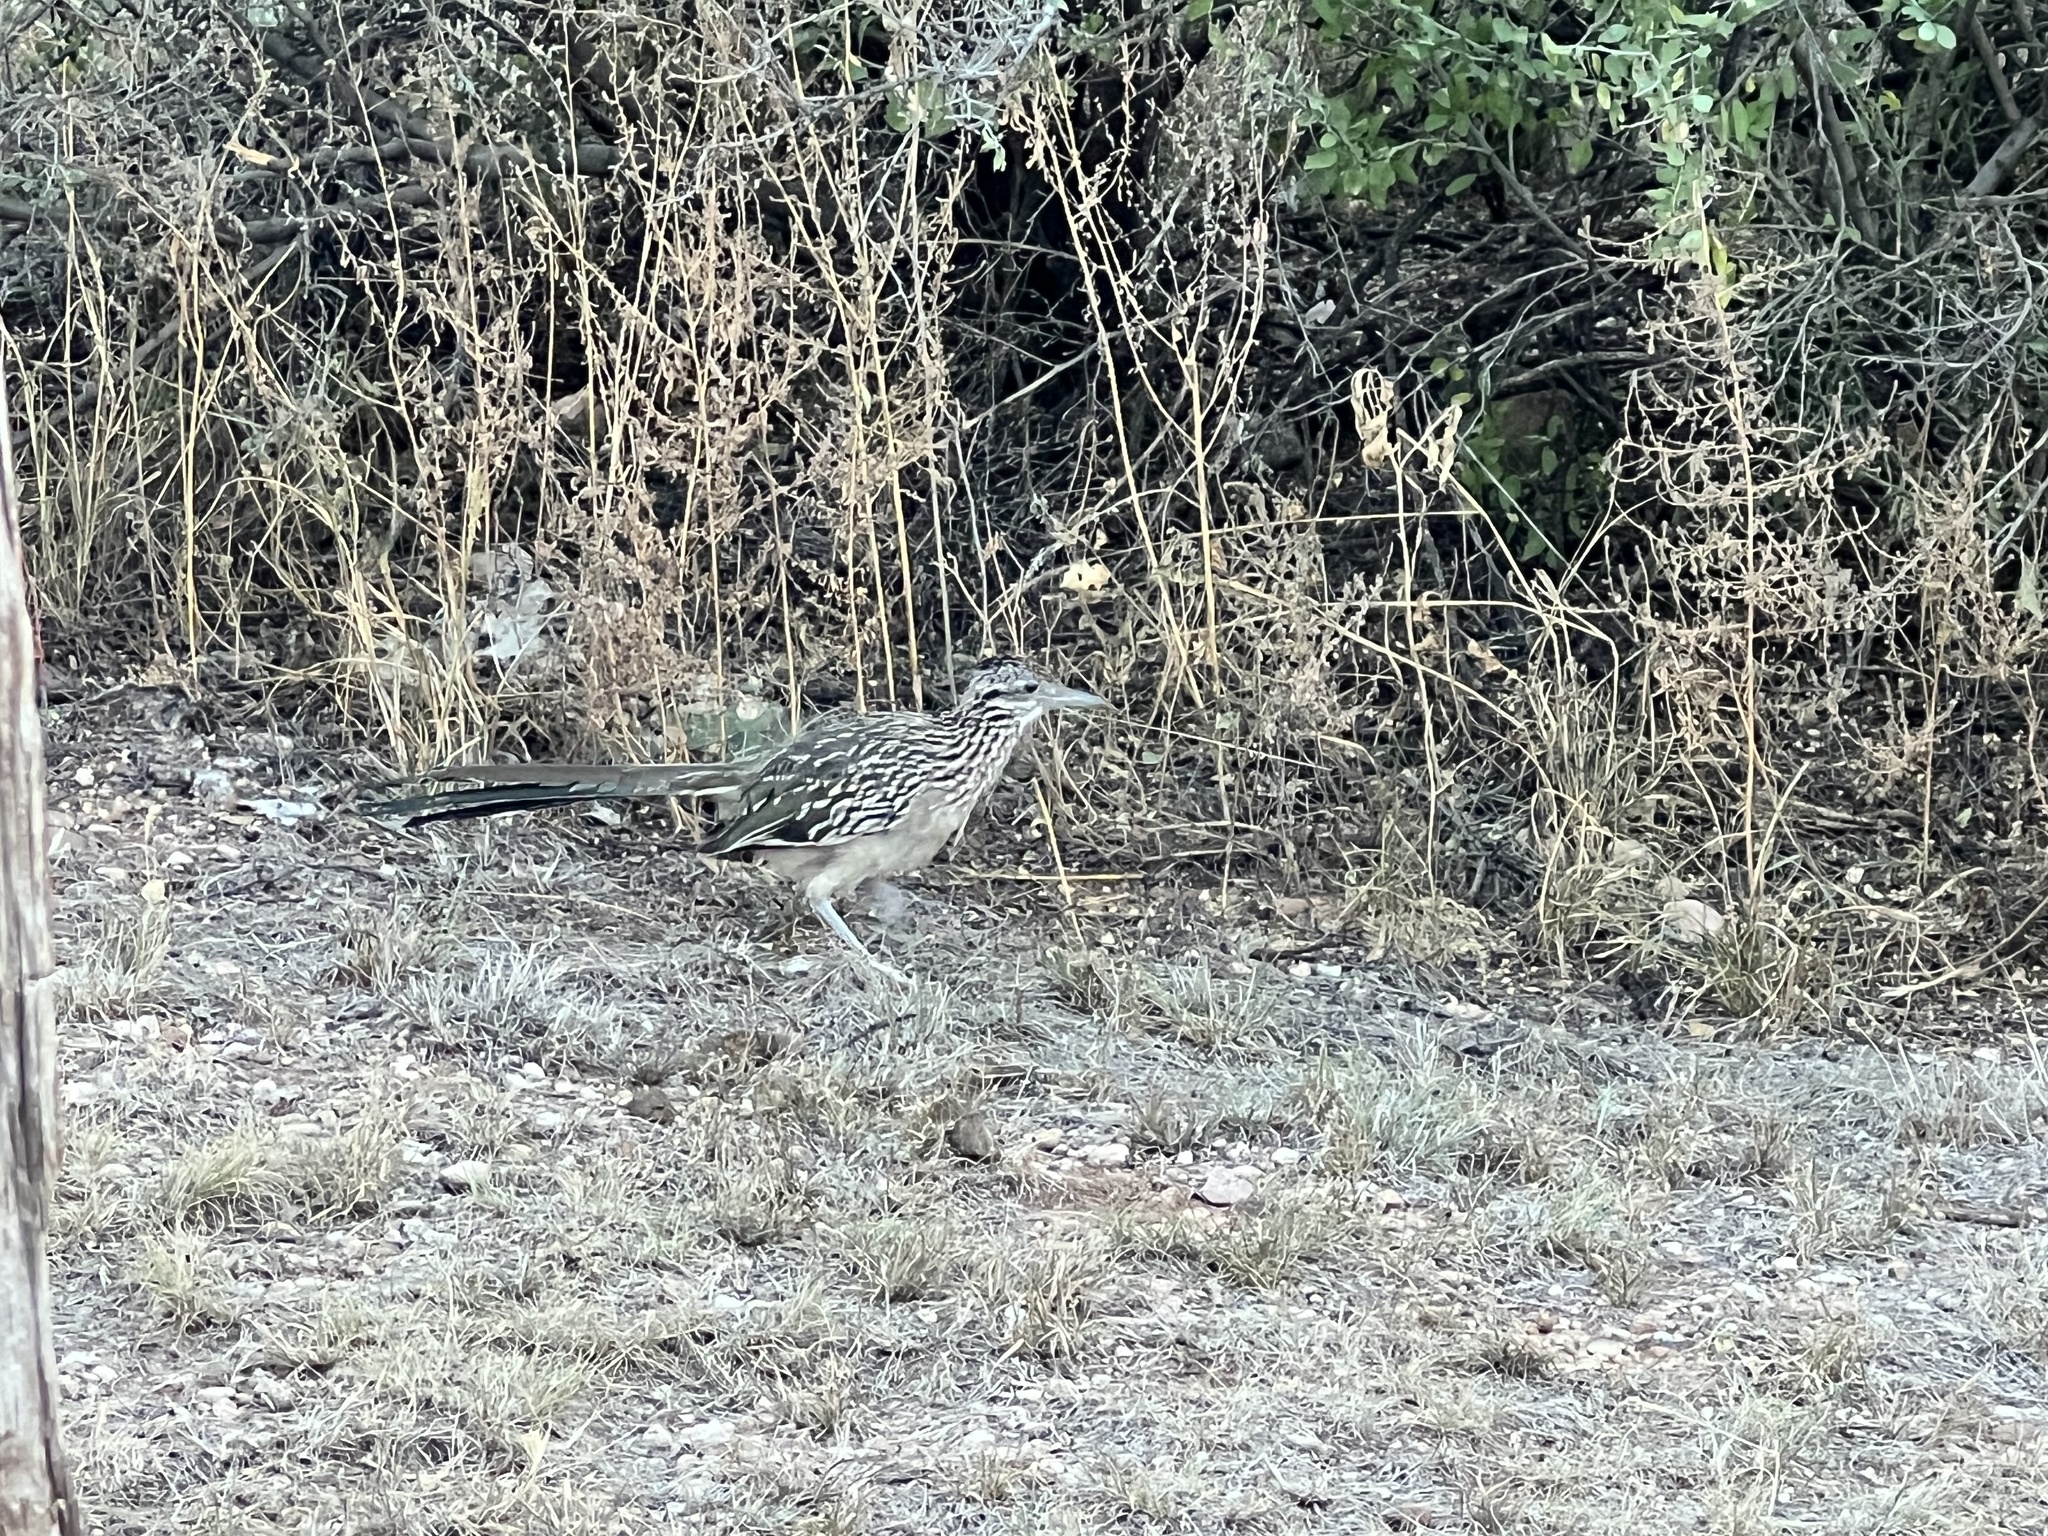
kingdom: Animalia
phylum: Chordata
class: Aves
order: Cuculiformes
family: Cuculidae
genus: Geococcyx
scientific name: Geococcyx californianus
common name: Greater roadrunner
